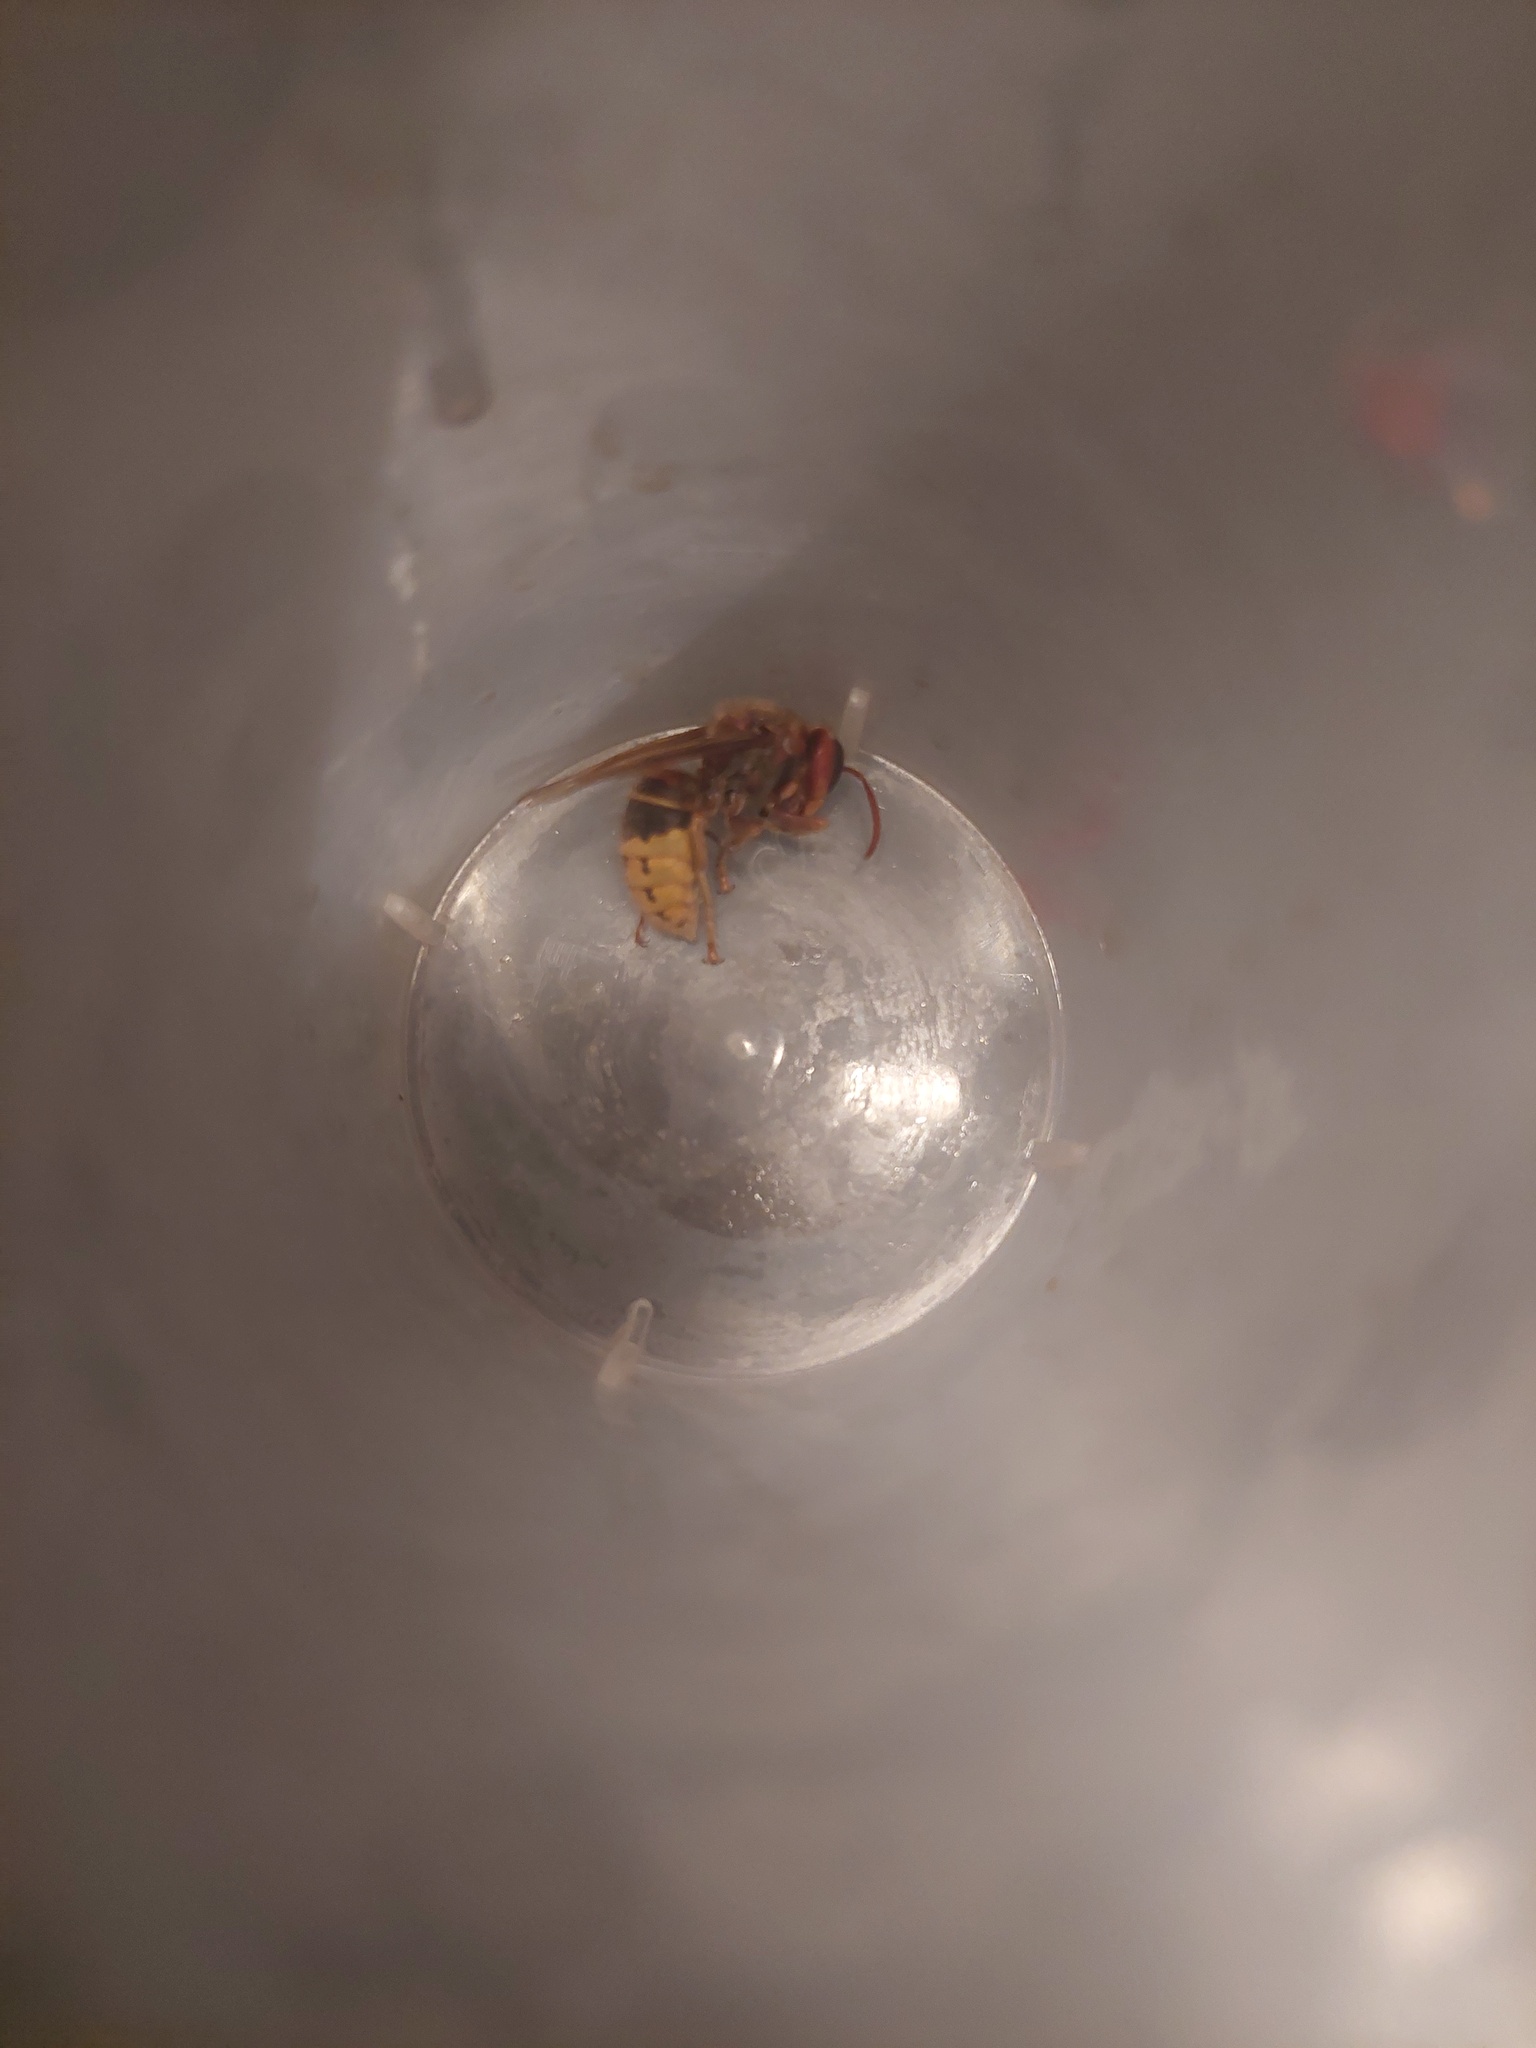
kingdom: Animalia
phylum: Arthropoda
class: Insecta
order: Hymenoptera
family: Vespidae
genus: Vespa
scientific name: Vespa crabro
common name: Hornet
